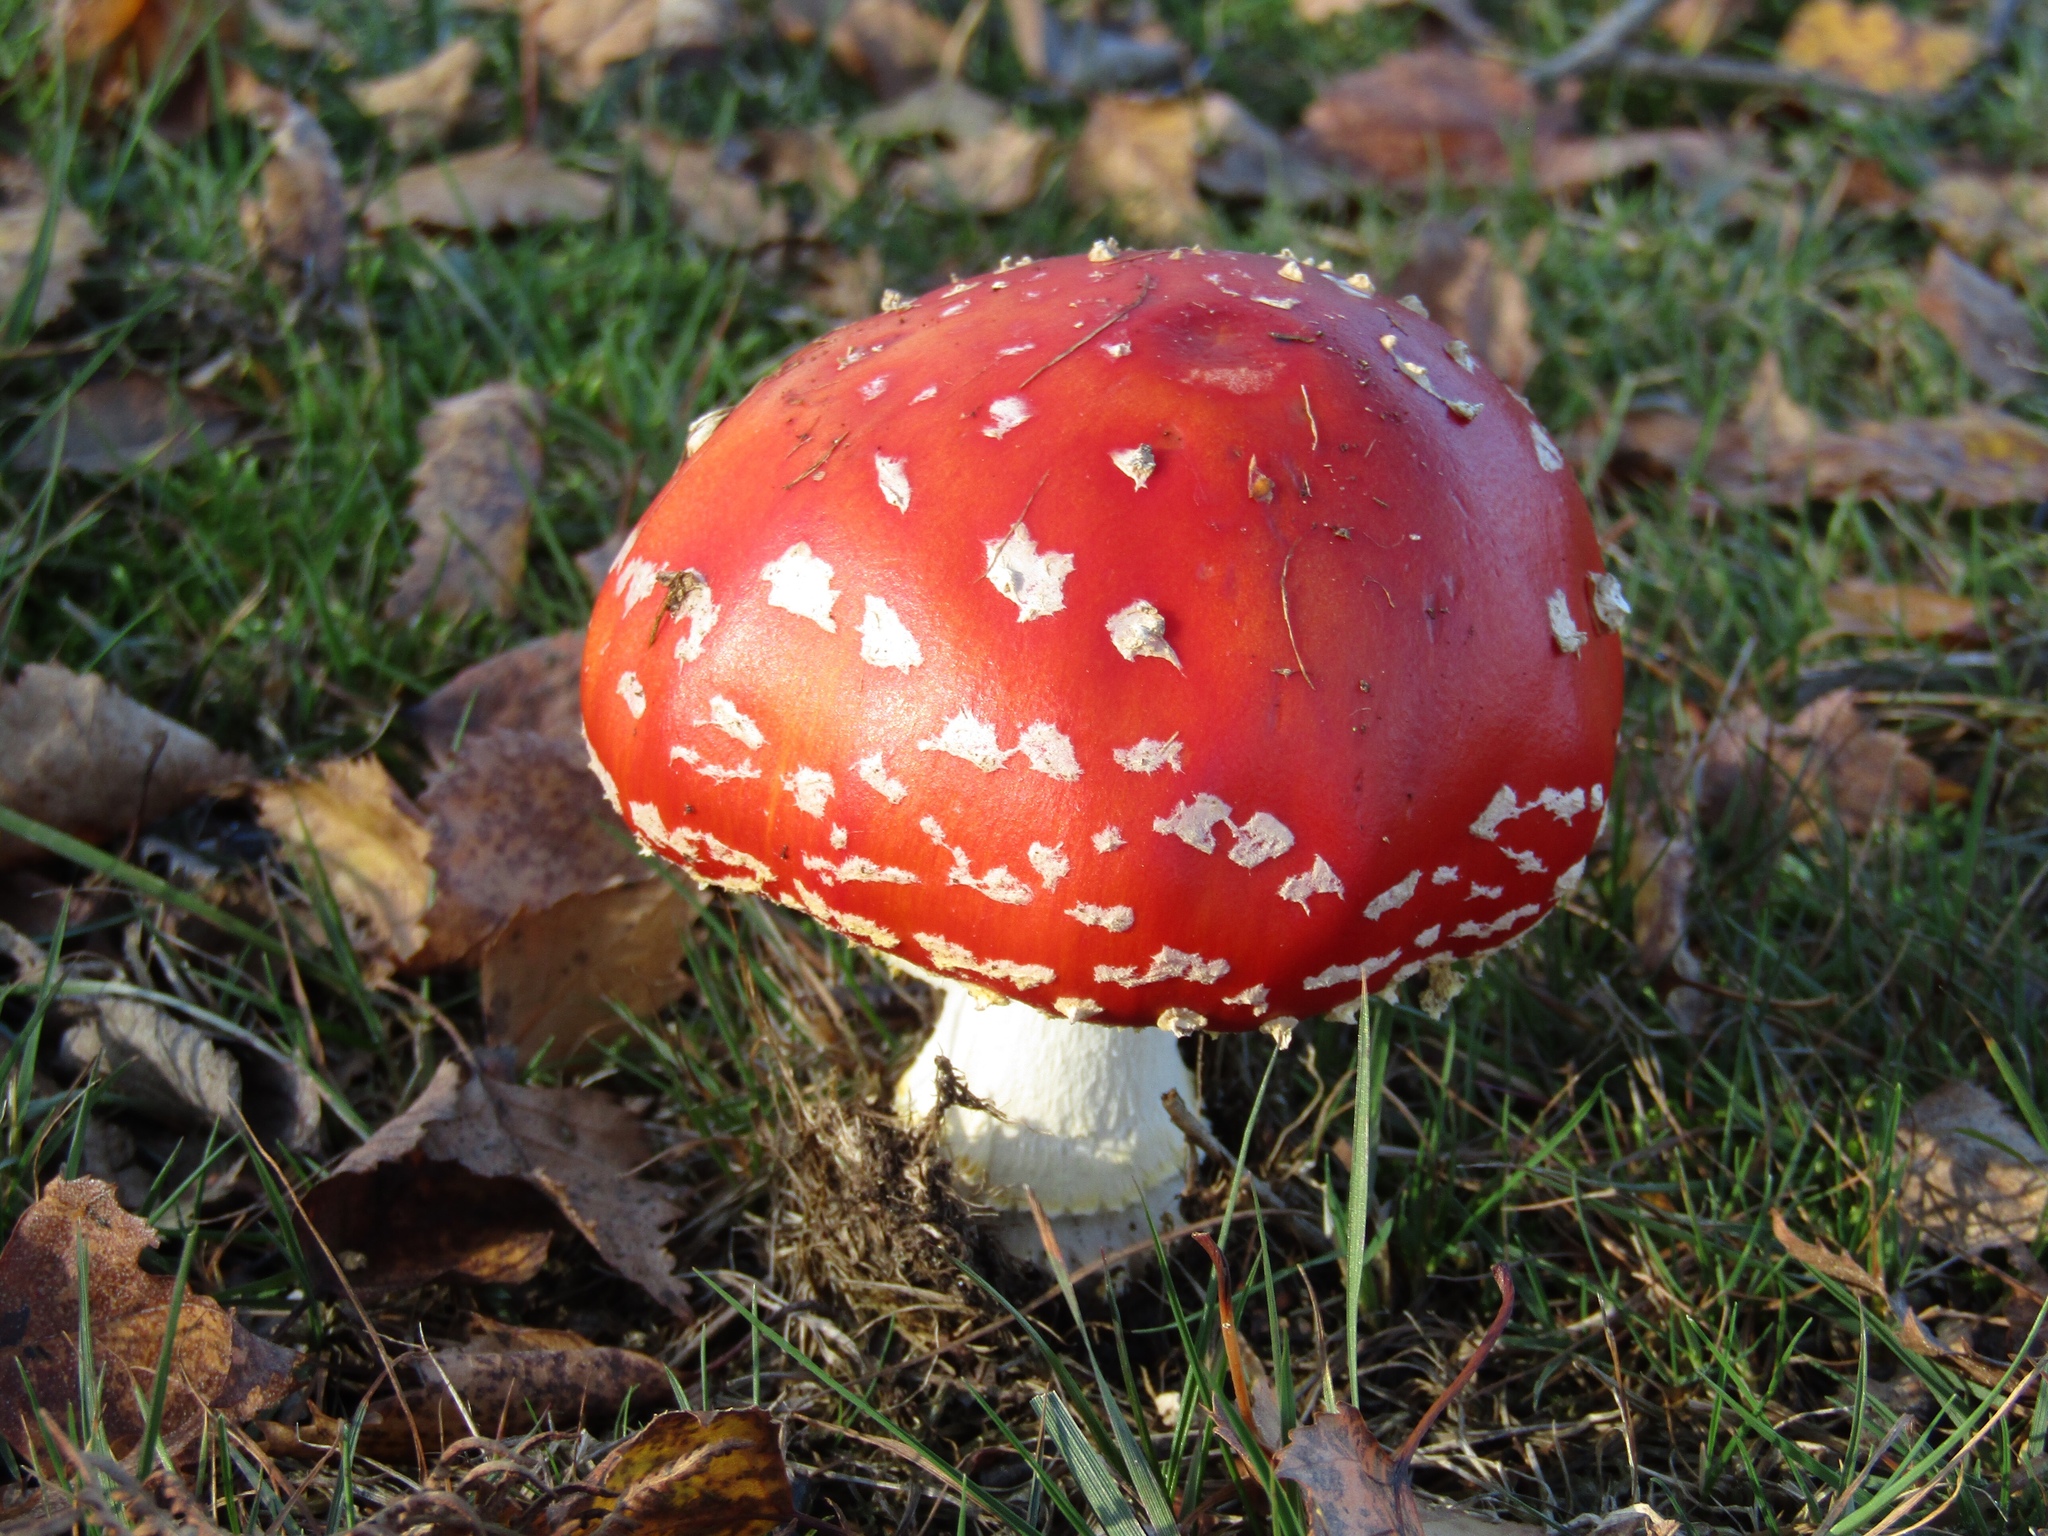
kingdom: Fungi
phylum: Basidiomycota
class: Agaricomycetes
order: Agaricales
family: Amanitaceae
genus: Amanita
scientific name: Amanita muscaria
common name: Fly agaric
